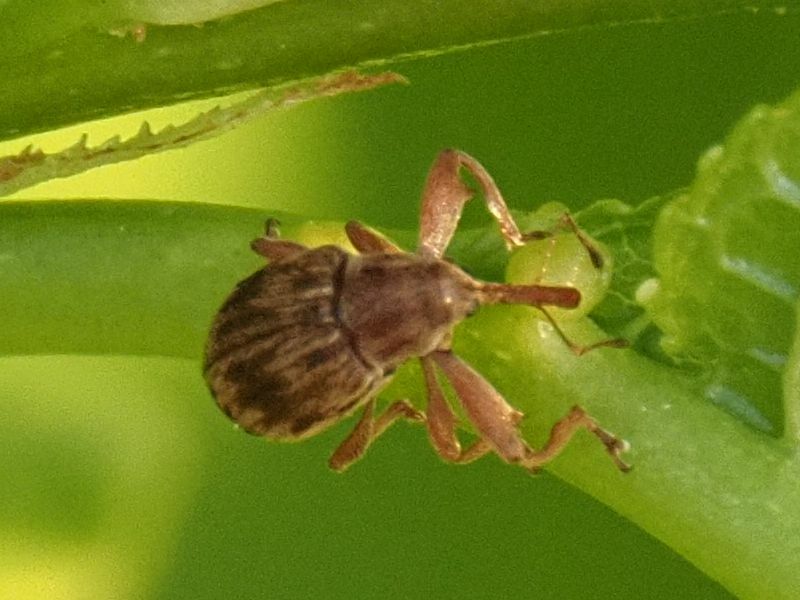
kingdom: Animalia
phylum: Arthropoda
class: Insecta
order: Coleoptera
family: Curculionidae
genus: Anthonomus
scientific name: Anthonomus rectirostris
